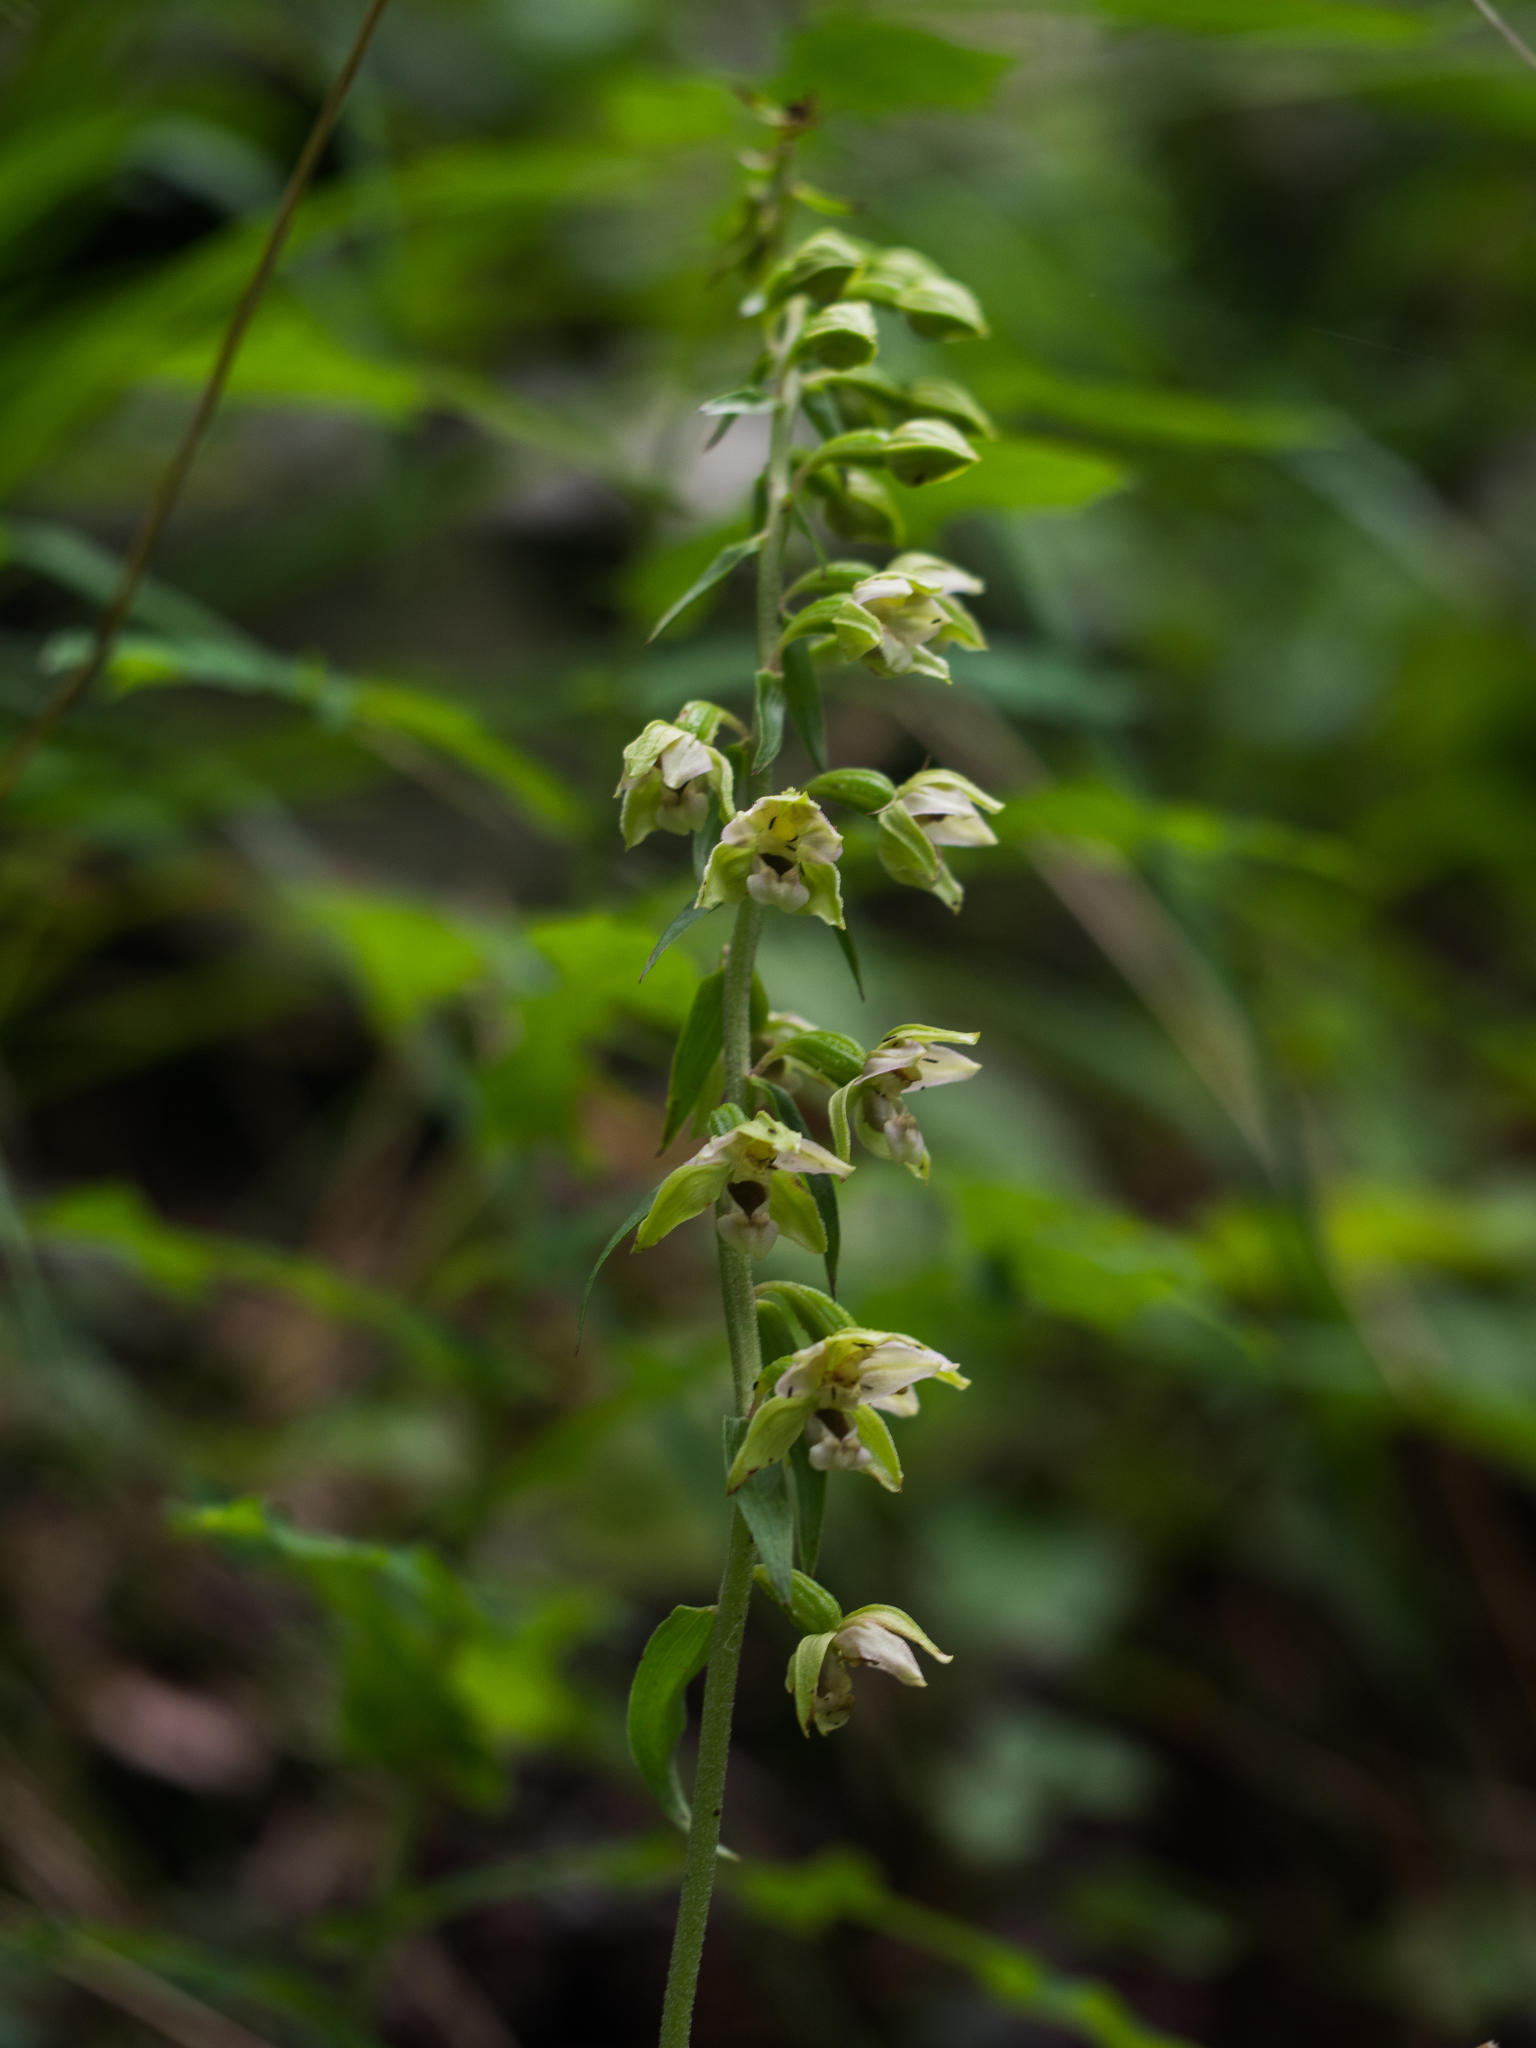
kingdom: Plantae
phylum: Tracheophyta
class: Liliopsida
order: Asparagales
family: Orchidaceae
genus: Epipactis
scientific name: Epipactis helleborine
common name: Broad-leaved helleborine
